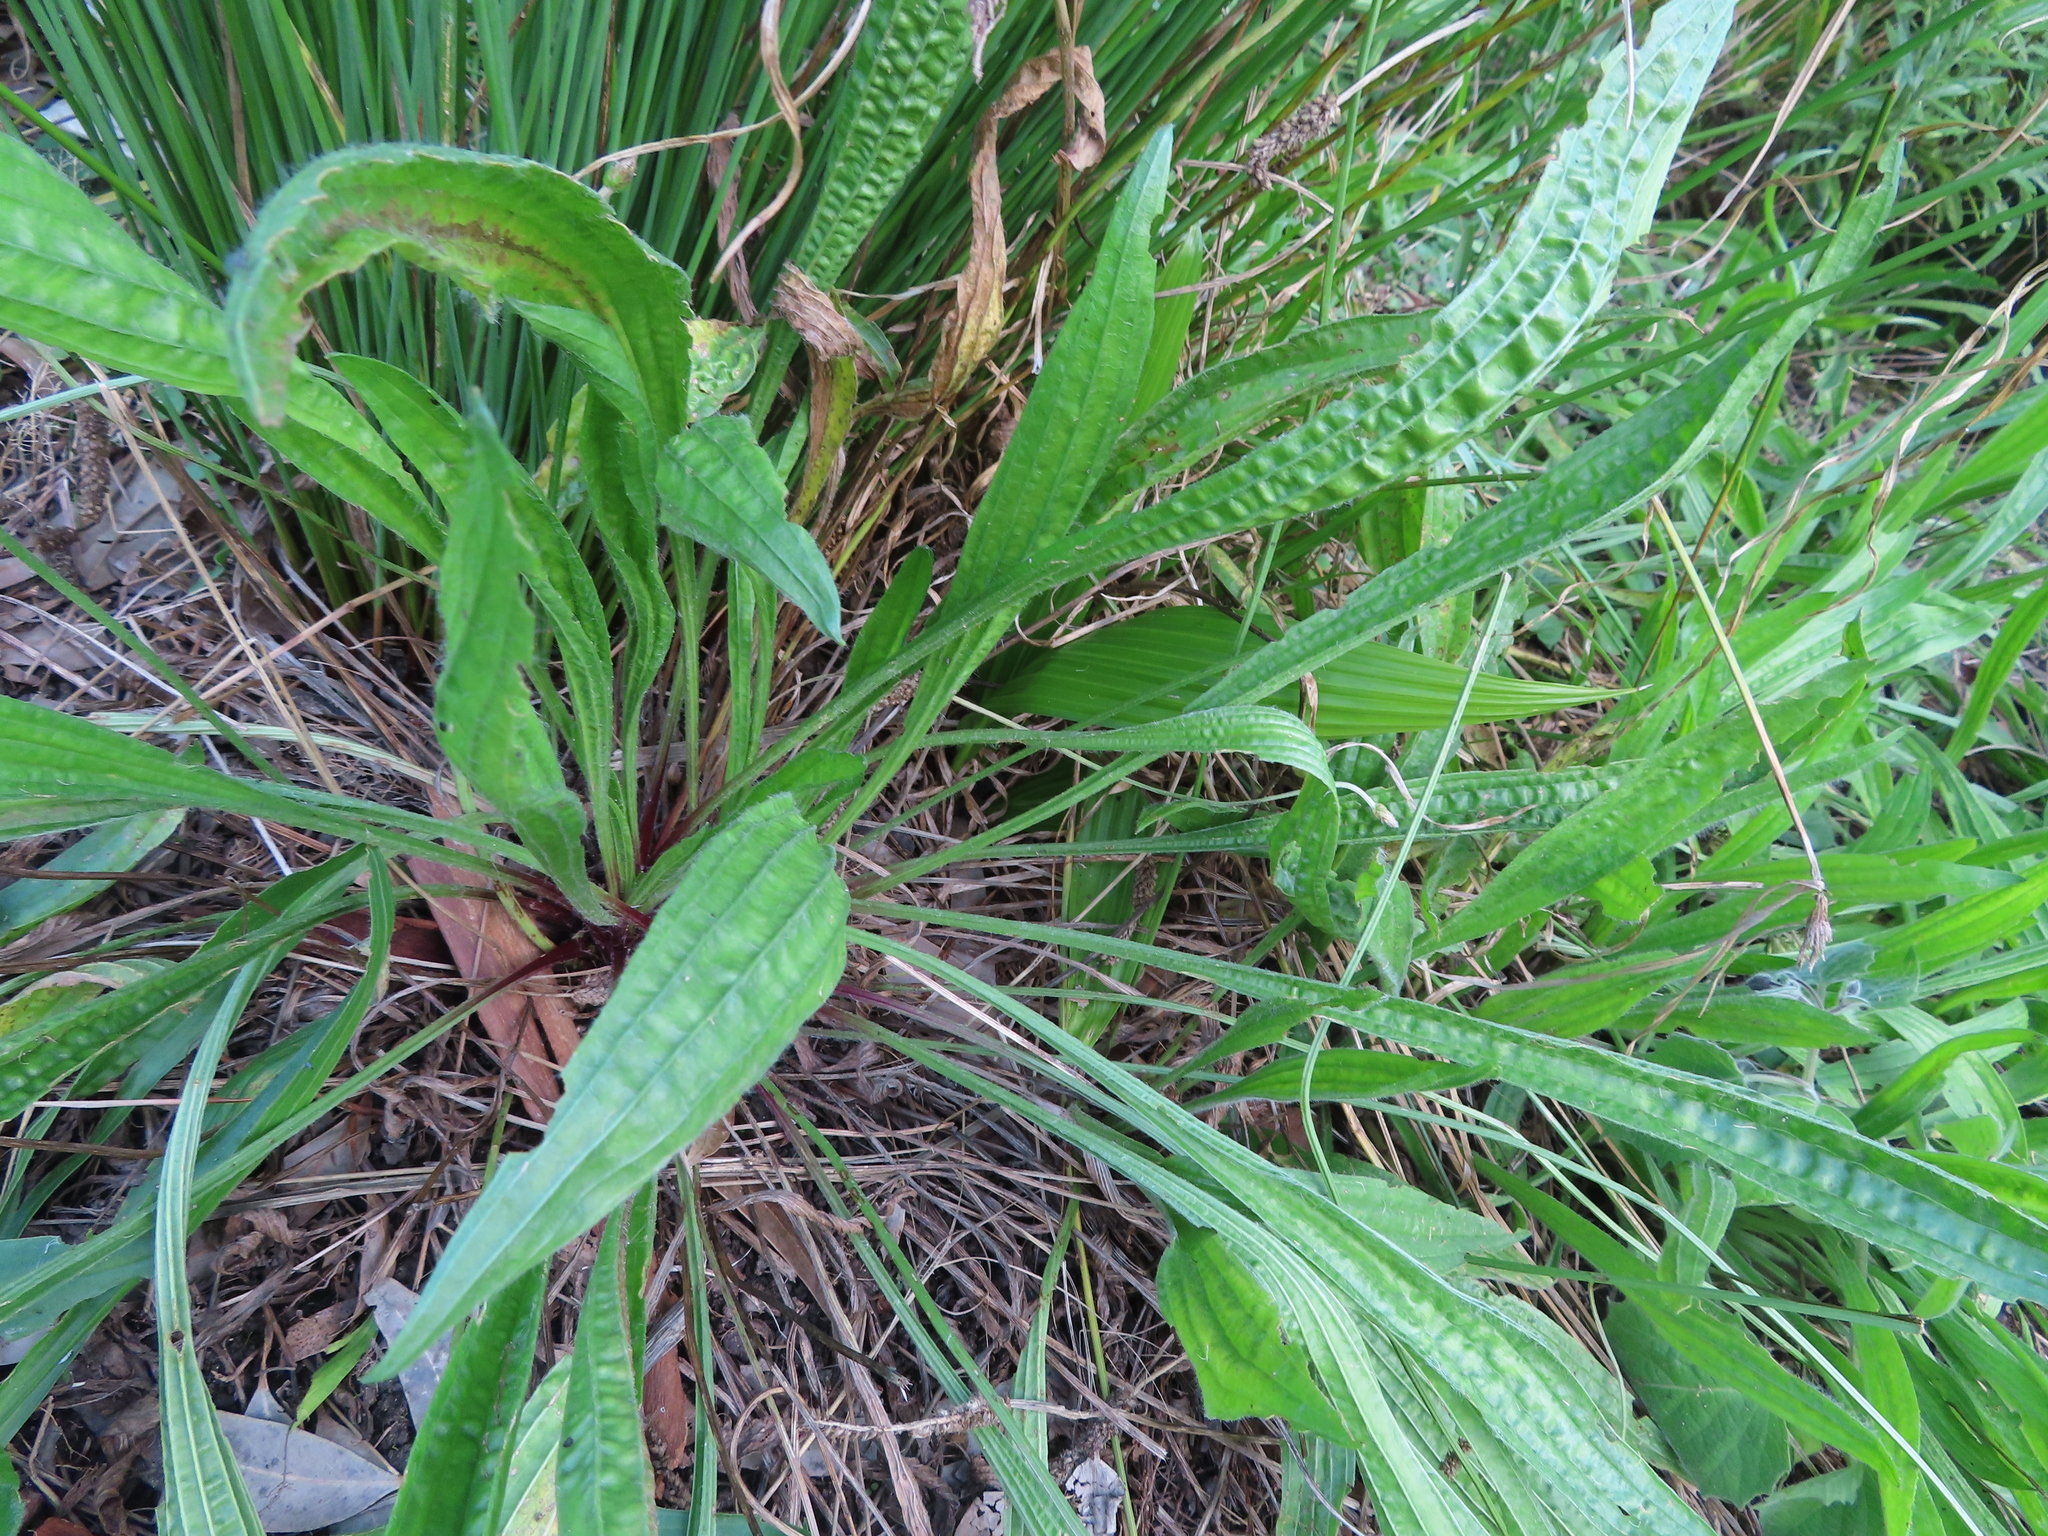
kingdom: Plantae
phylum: Tracheophyta
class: Magnoliopsida
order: Lamiales
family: Plantaginaceae
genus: Plantago
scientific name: Plantago lanceolata
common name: Ribwort plantain
